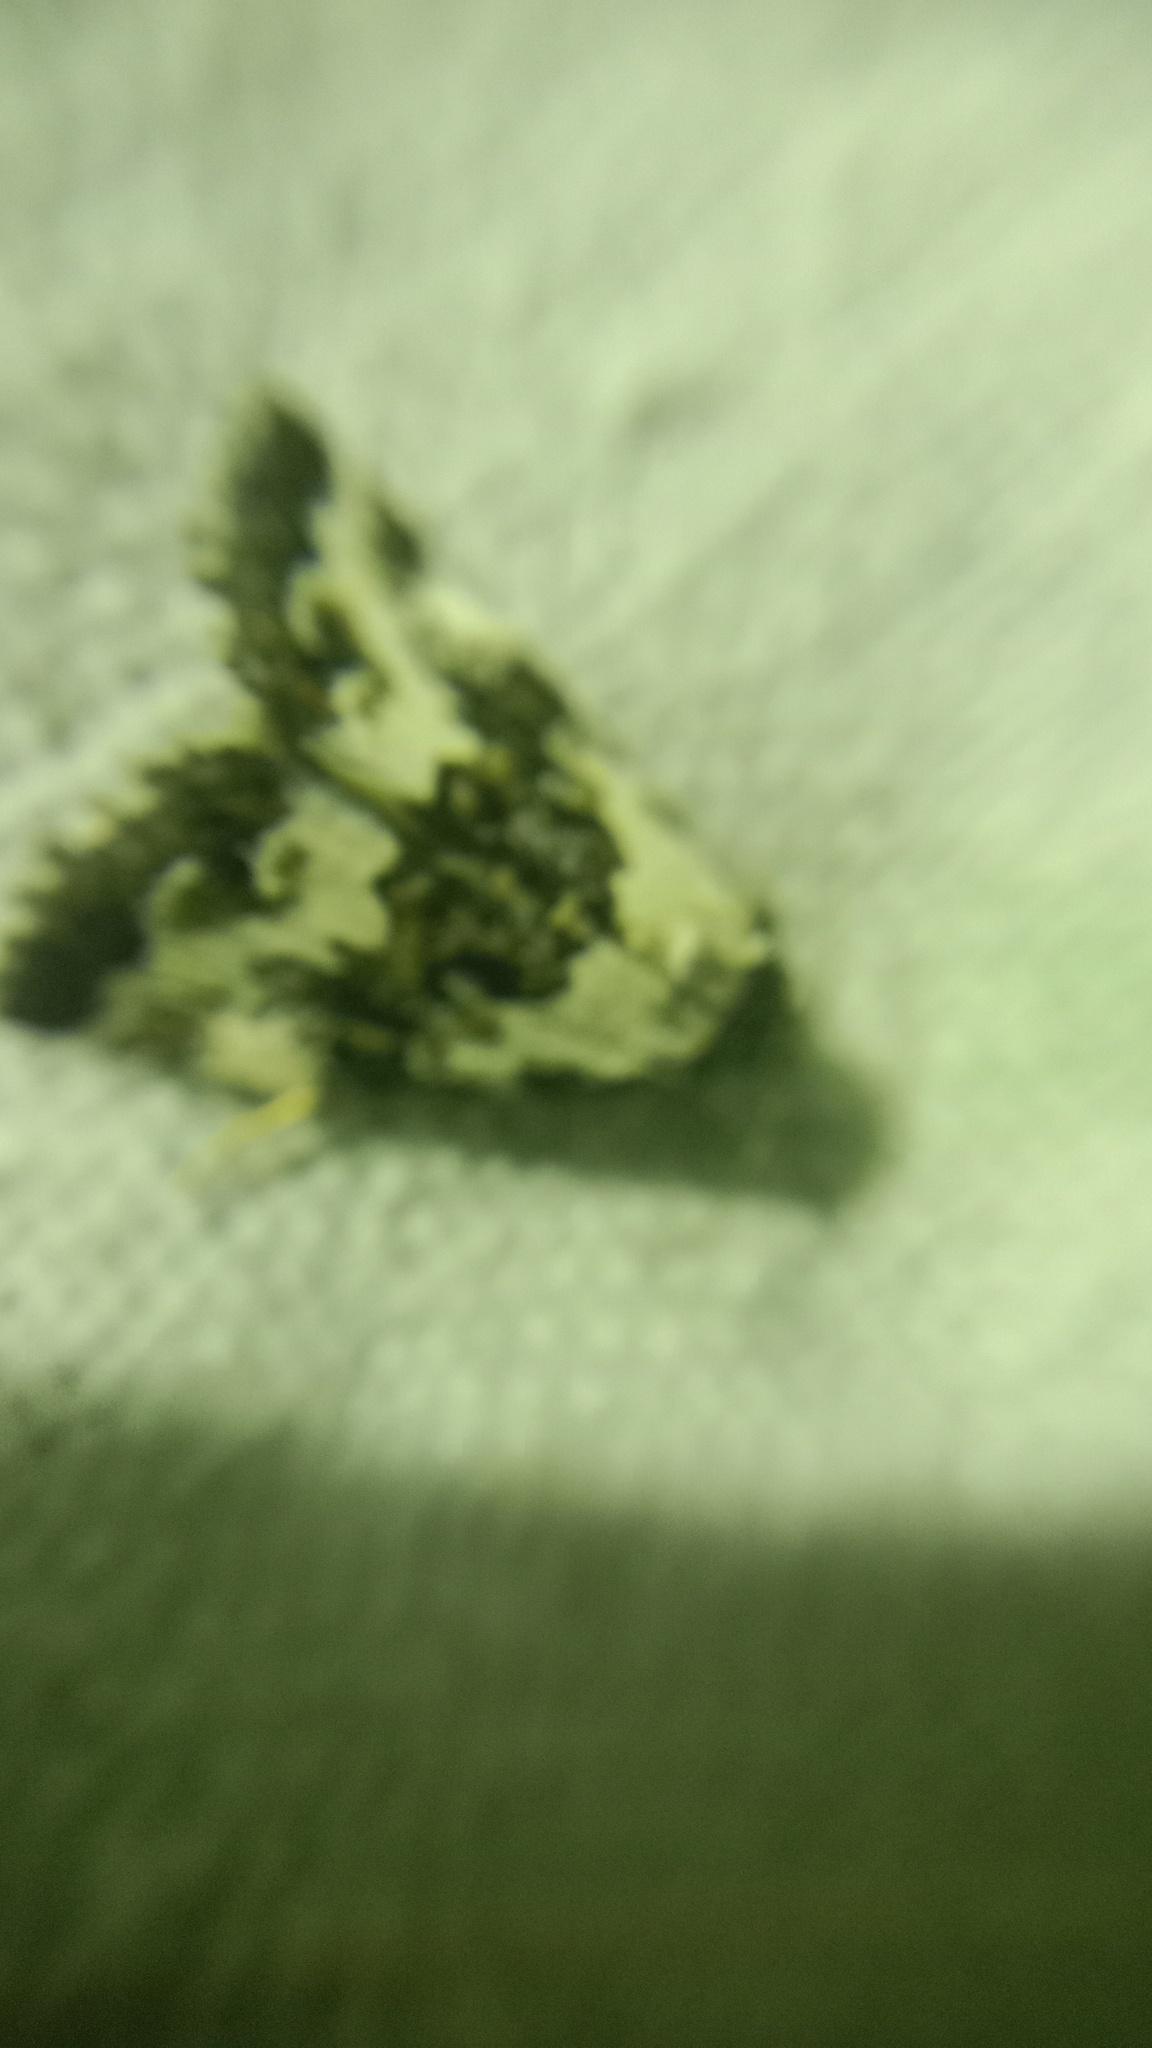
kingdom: Animalia
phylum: Arthropoda
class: Insecta
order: Lepidoptera
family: Noctuidae
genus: Deltote
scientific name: Deltote deceptoria
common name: Pretty marbled
